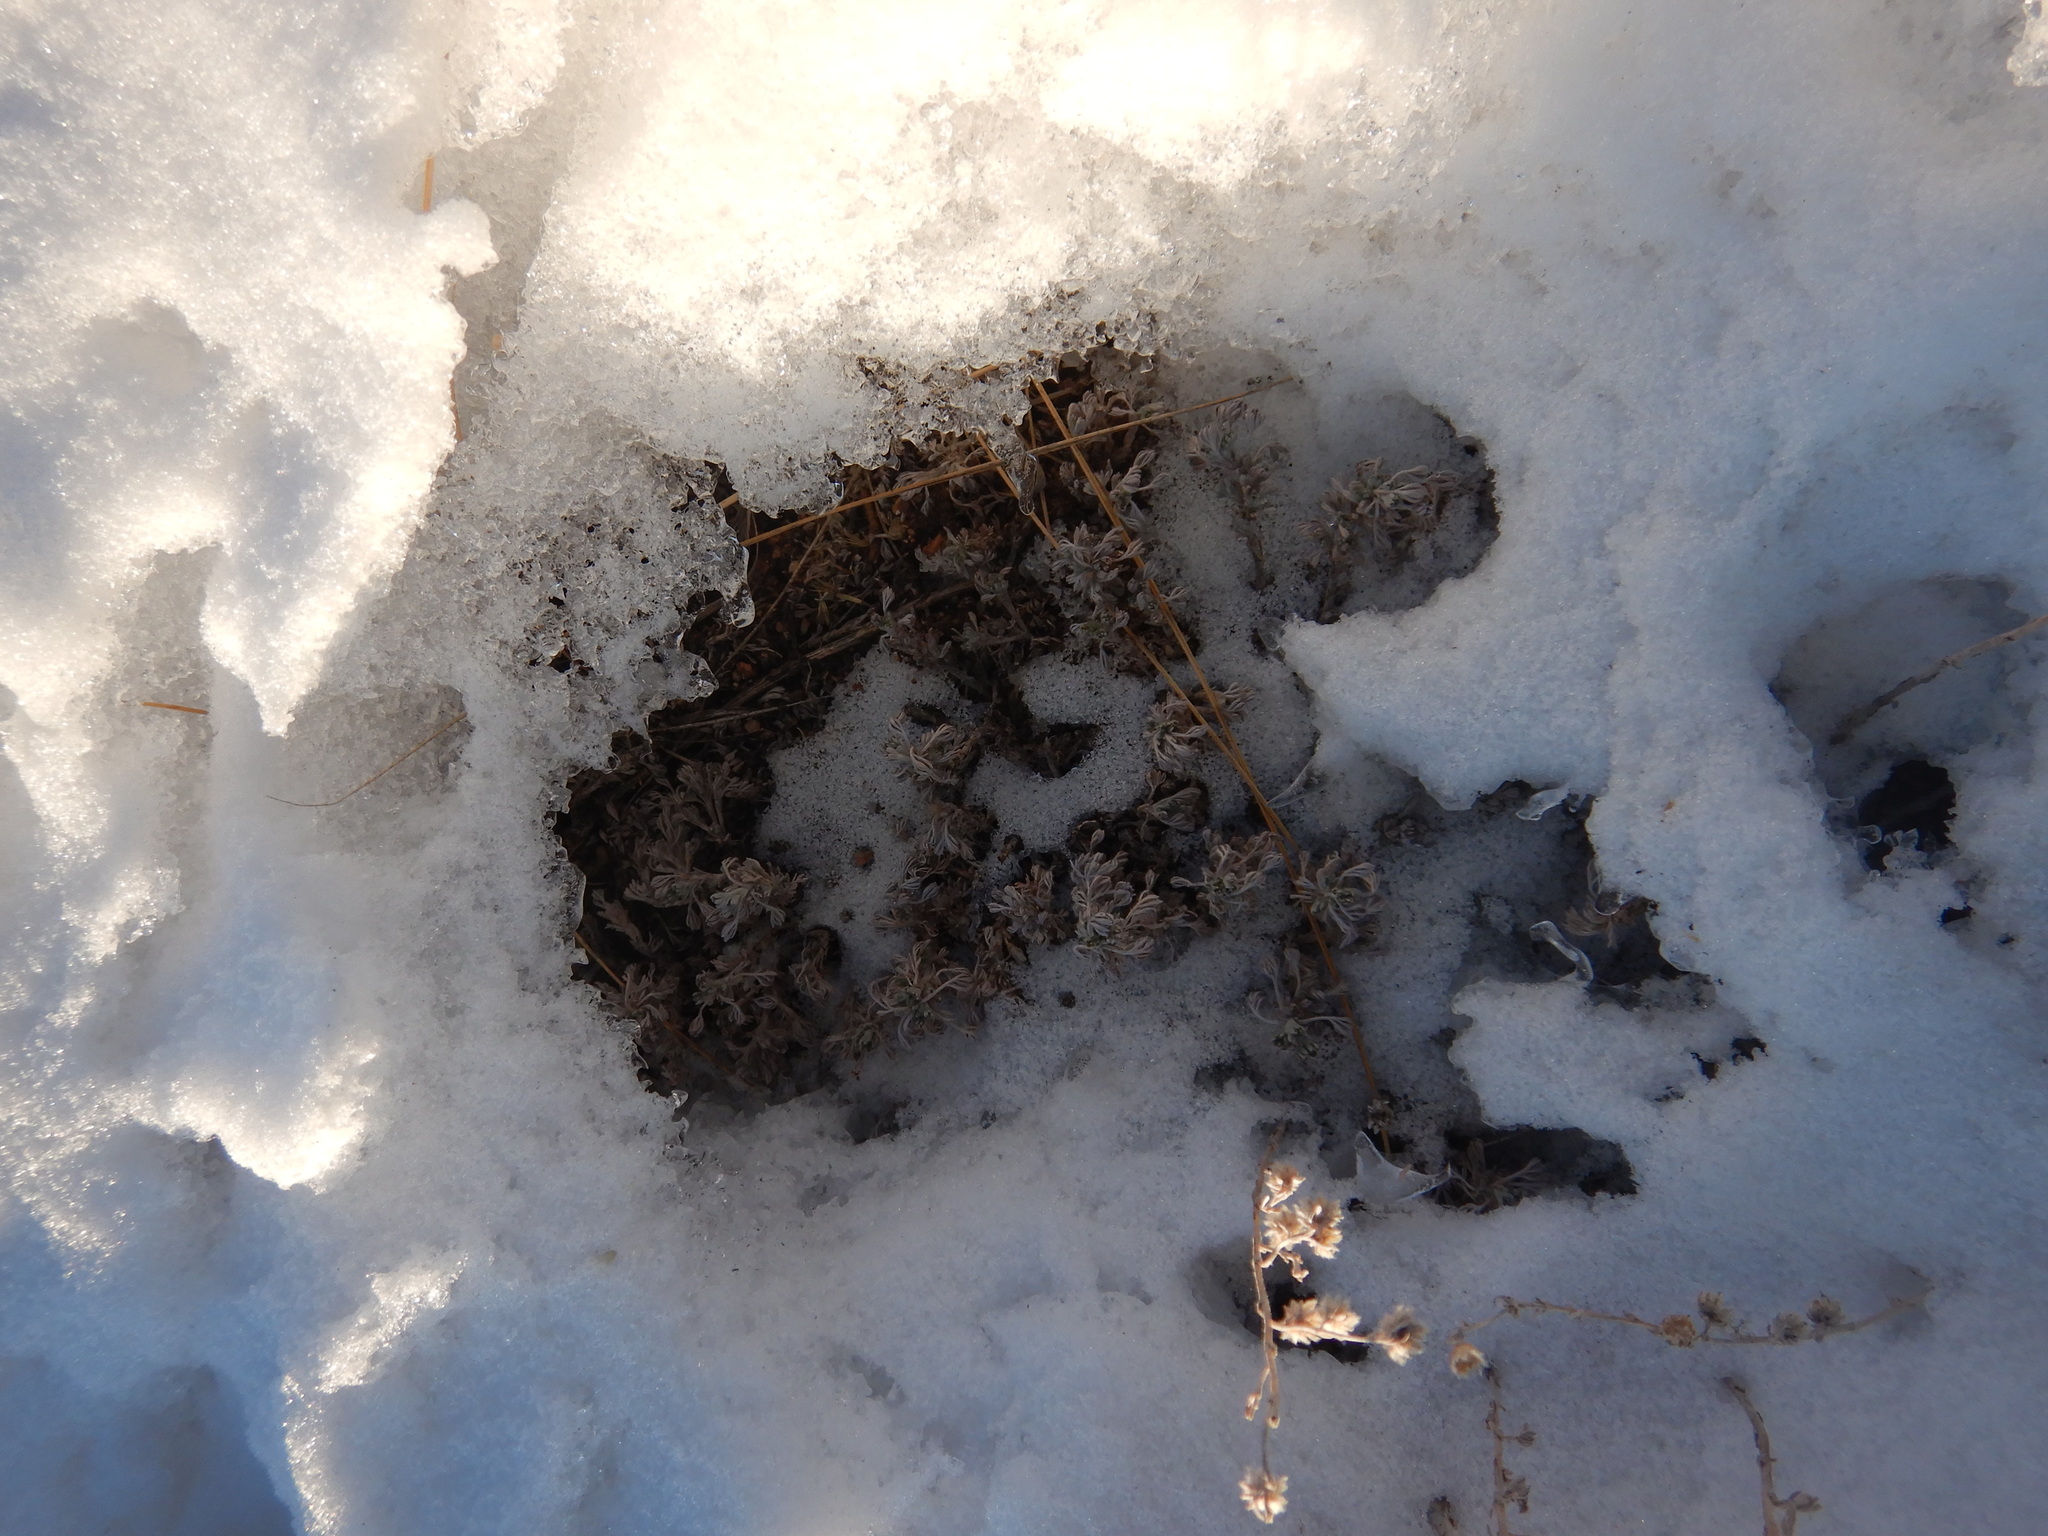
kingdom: Plantae
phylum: Tracheophyta
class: Magnoliopsida
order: Asterales
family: Asteraceae
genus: Artemisia
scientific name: Artemisia frigida
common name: Prairie sagewort
